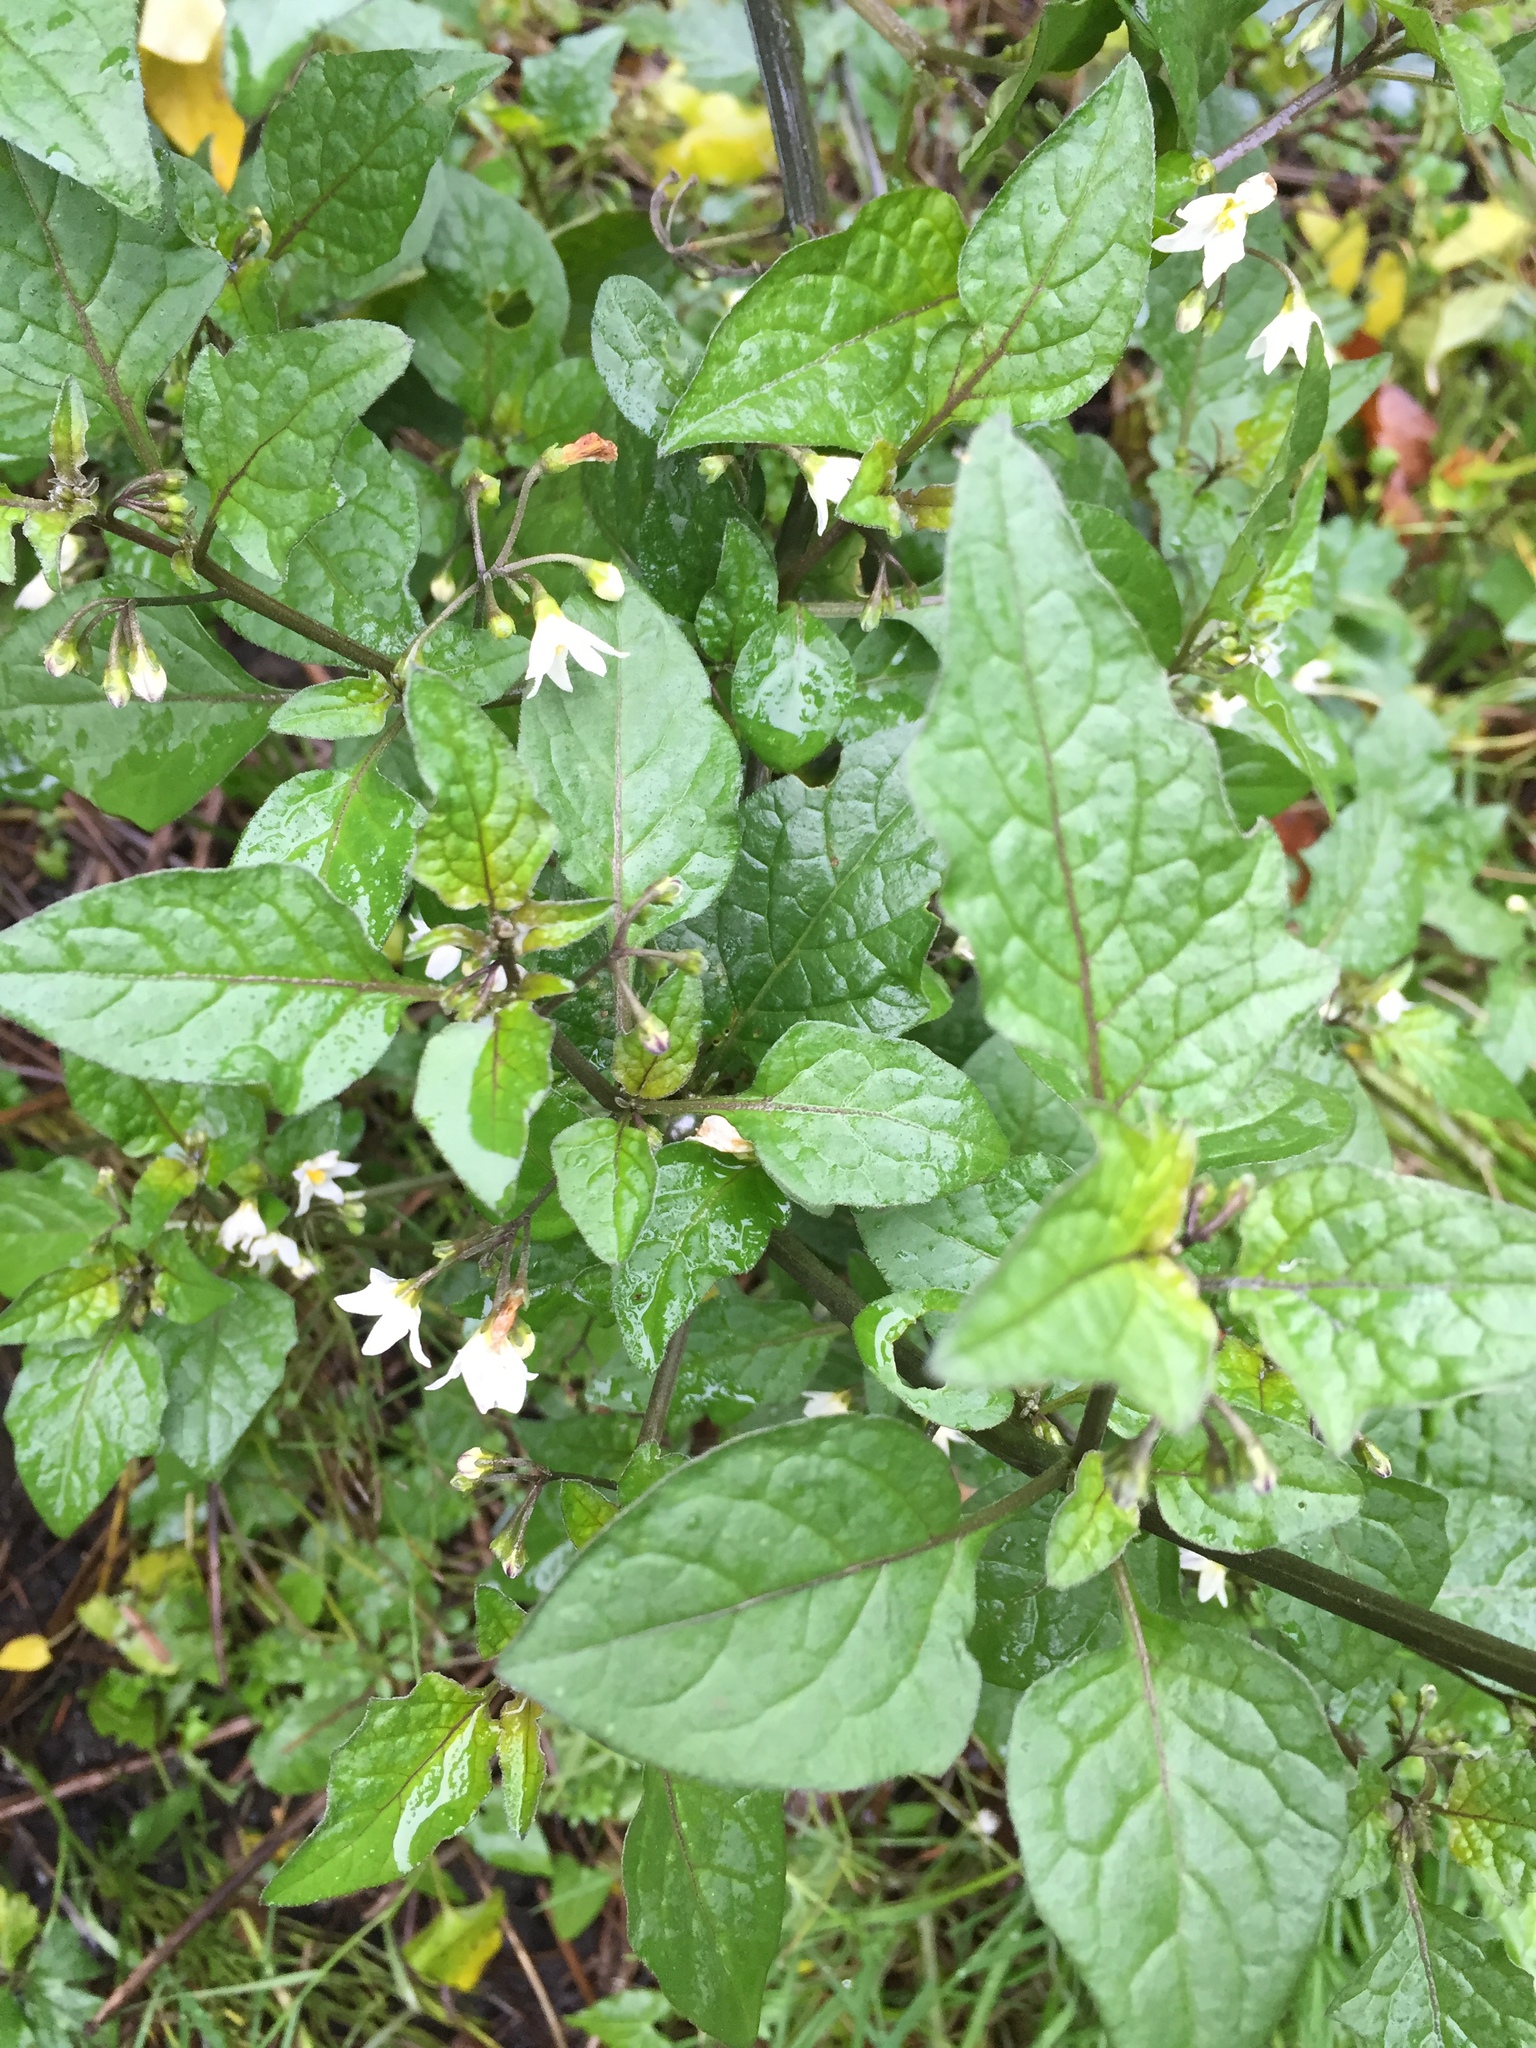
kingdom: Plantae
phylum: Tracheophyta
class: Magnoliopsida
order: Solanales
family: Solanaceae
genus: Solanum
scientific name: Solanum americanum
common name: American black nightshade
